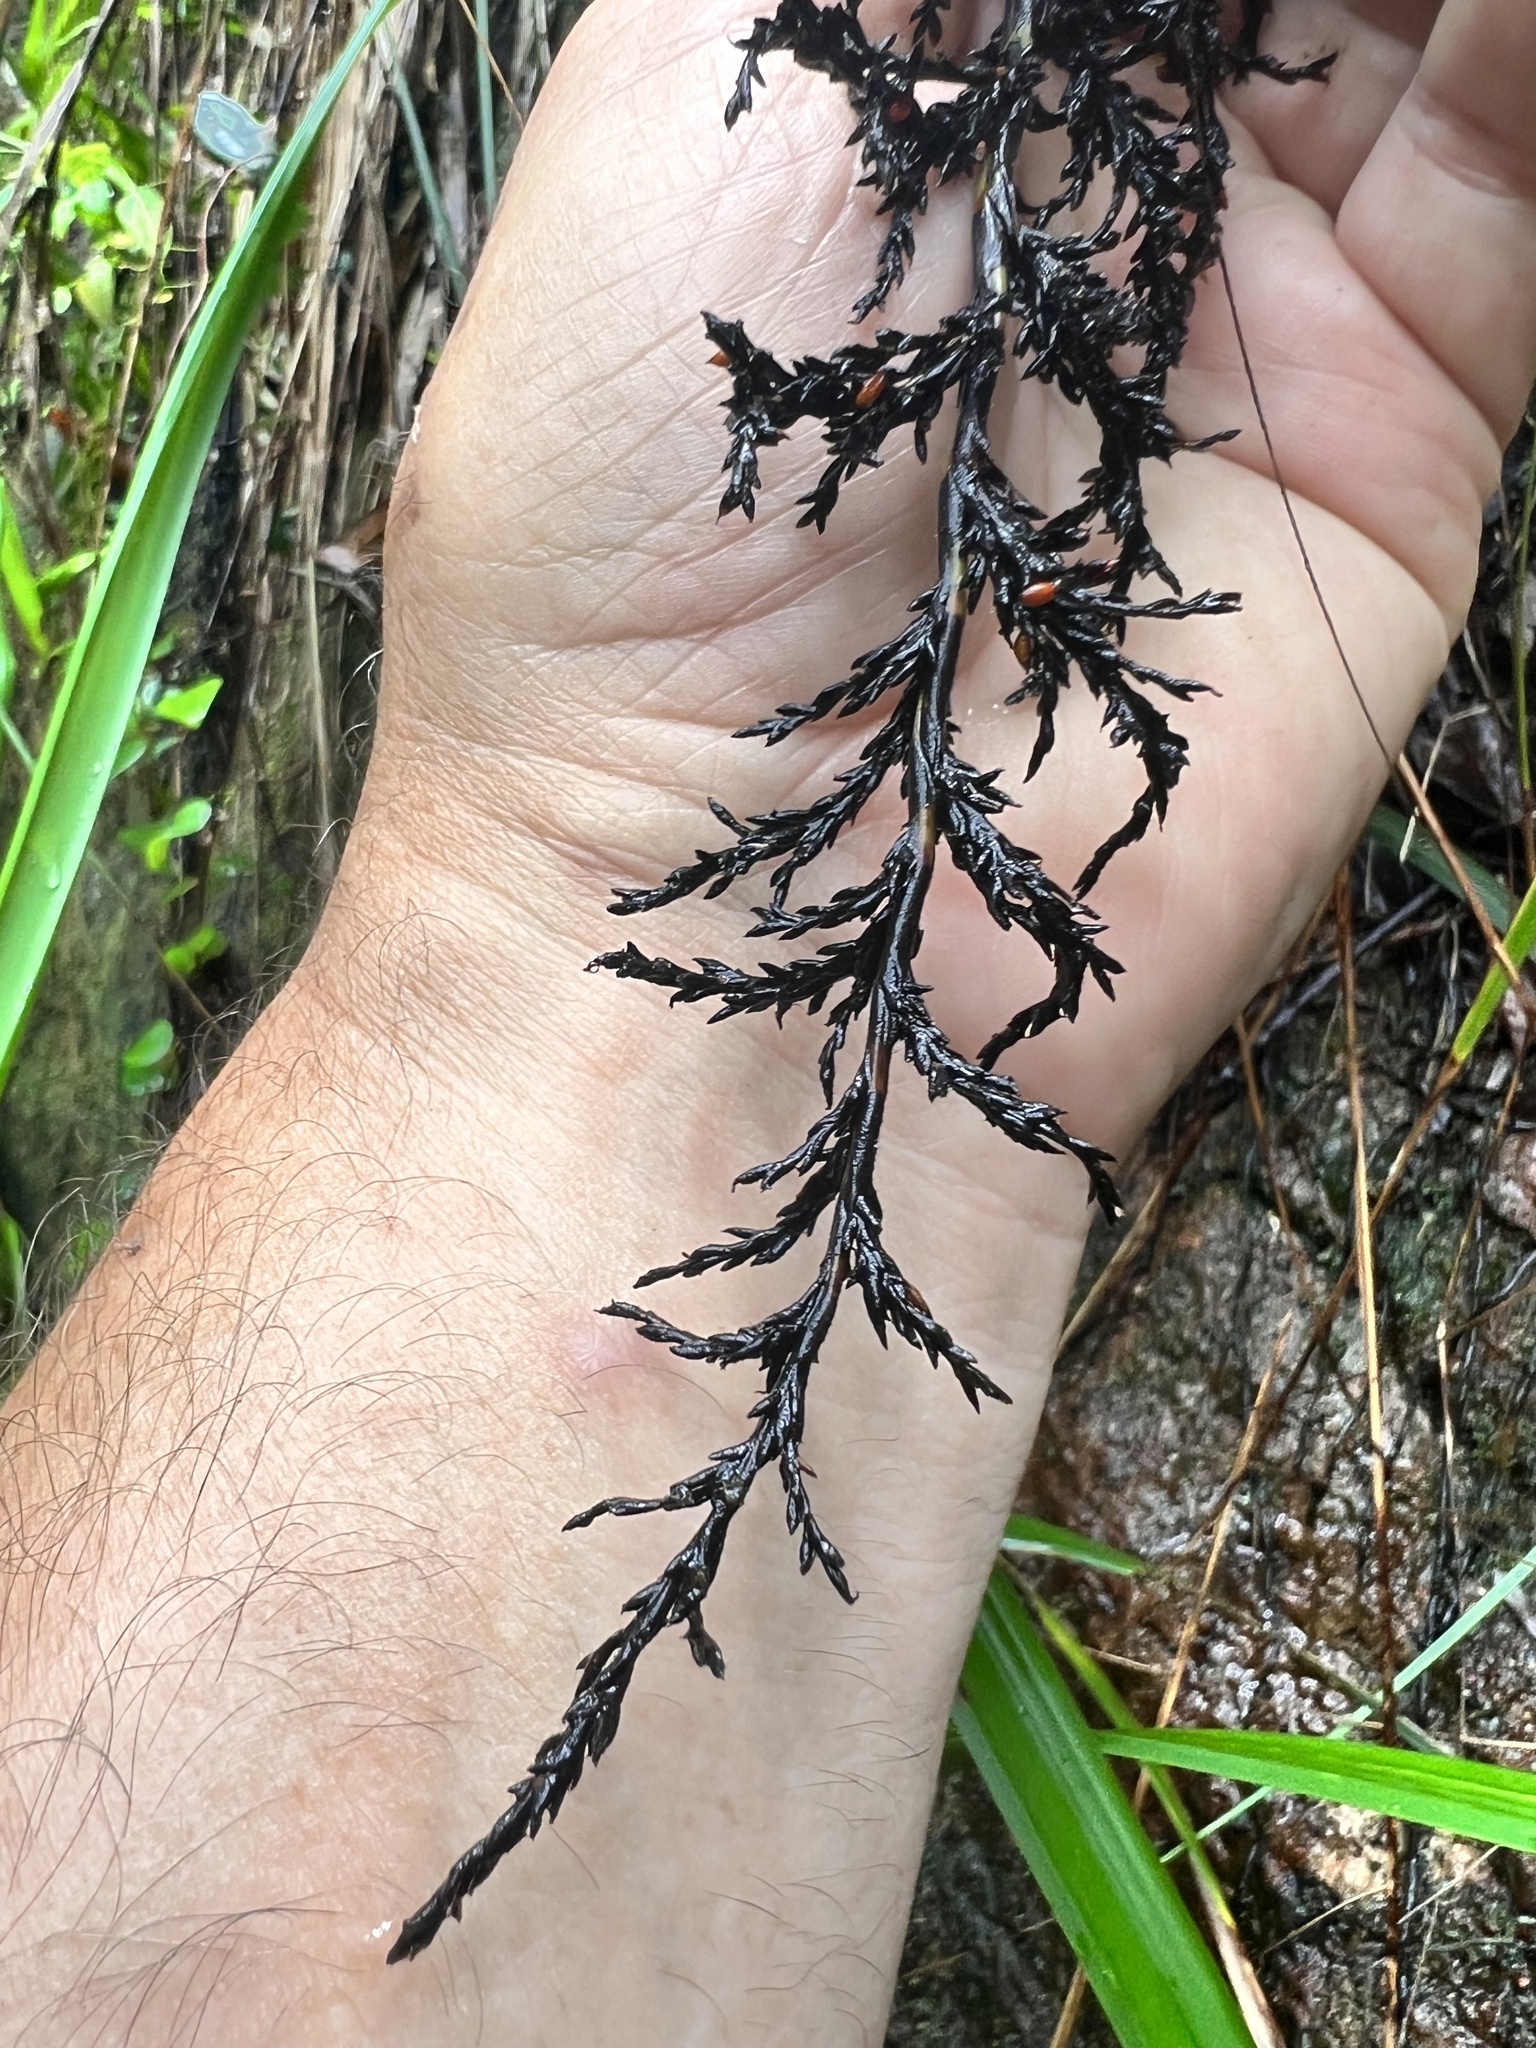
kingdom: Plantae
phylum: Tracheophyta
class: Liliopsida
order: Poales
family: Cyperaceae
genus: Gahnia
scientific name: Gahnia sieberiana
